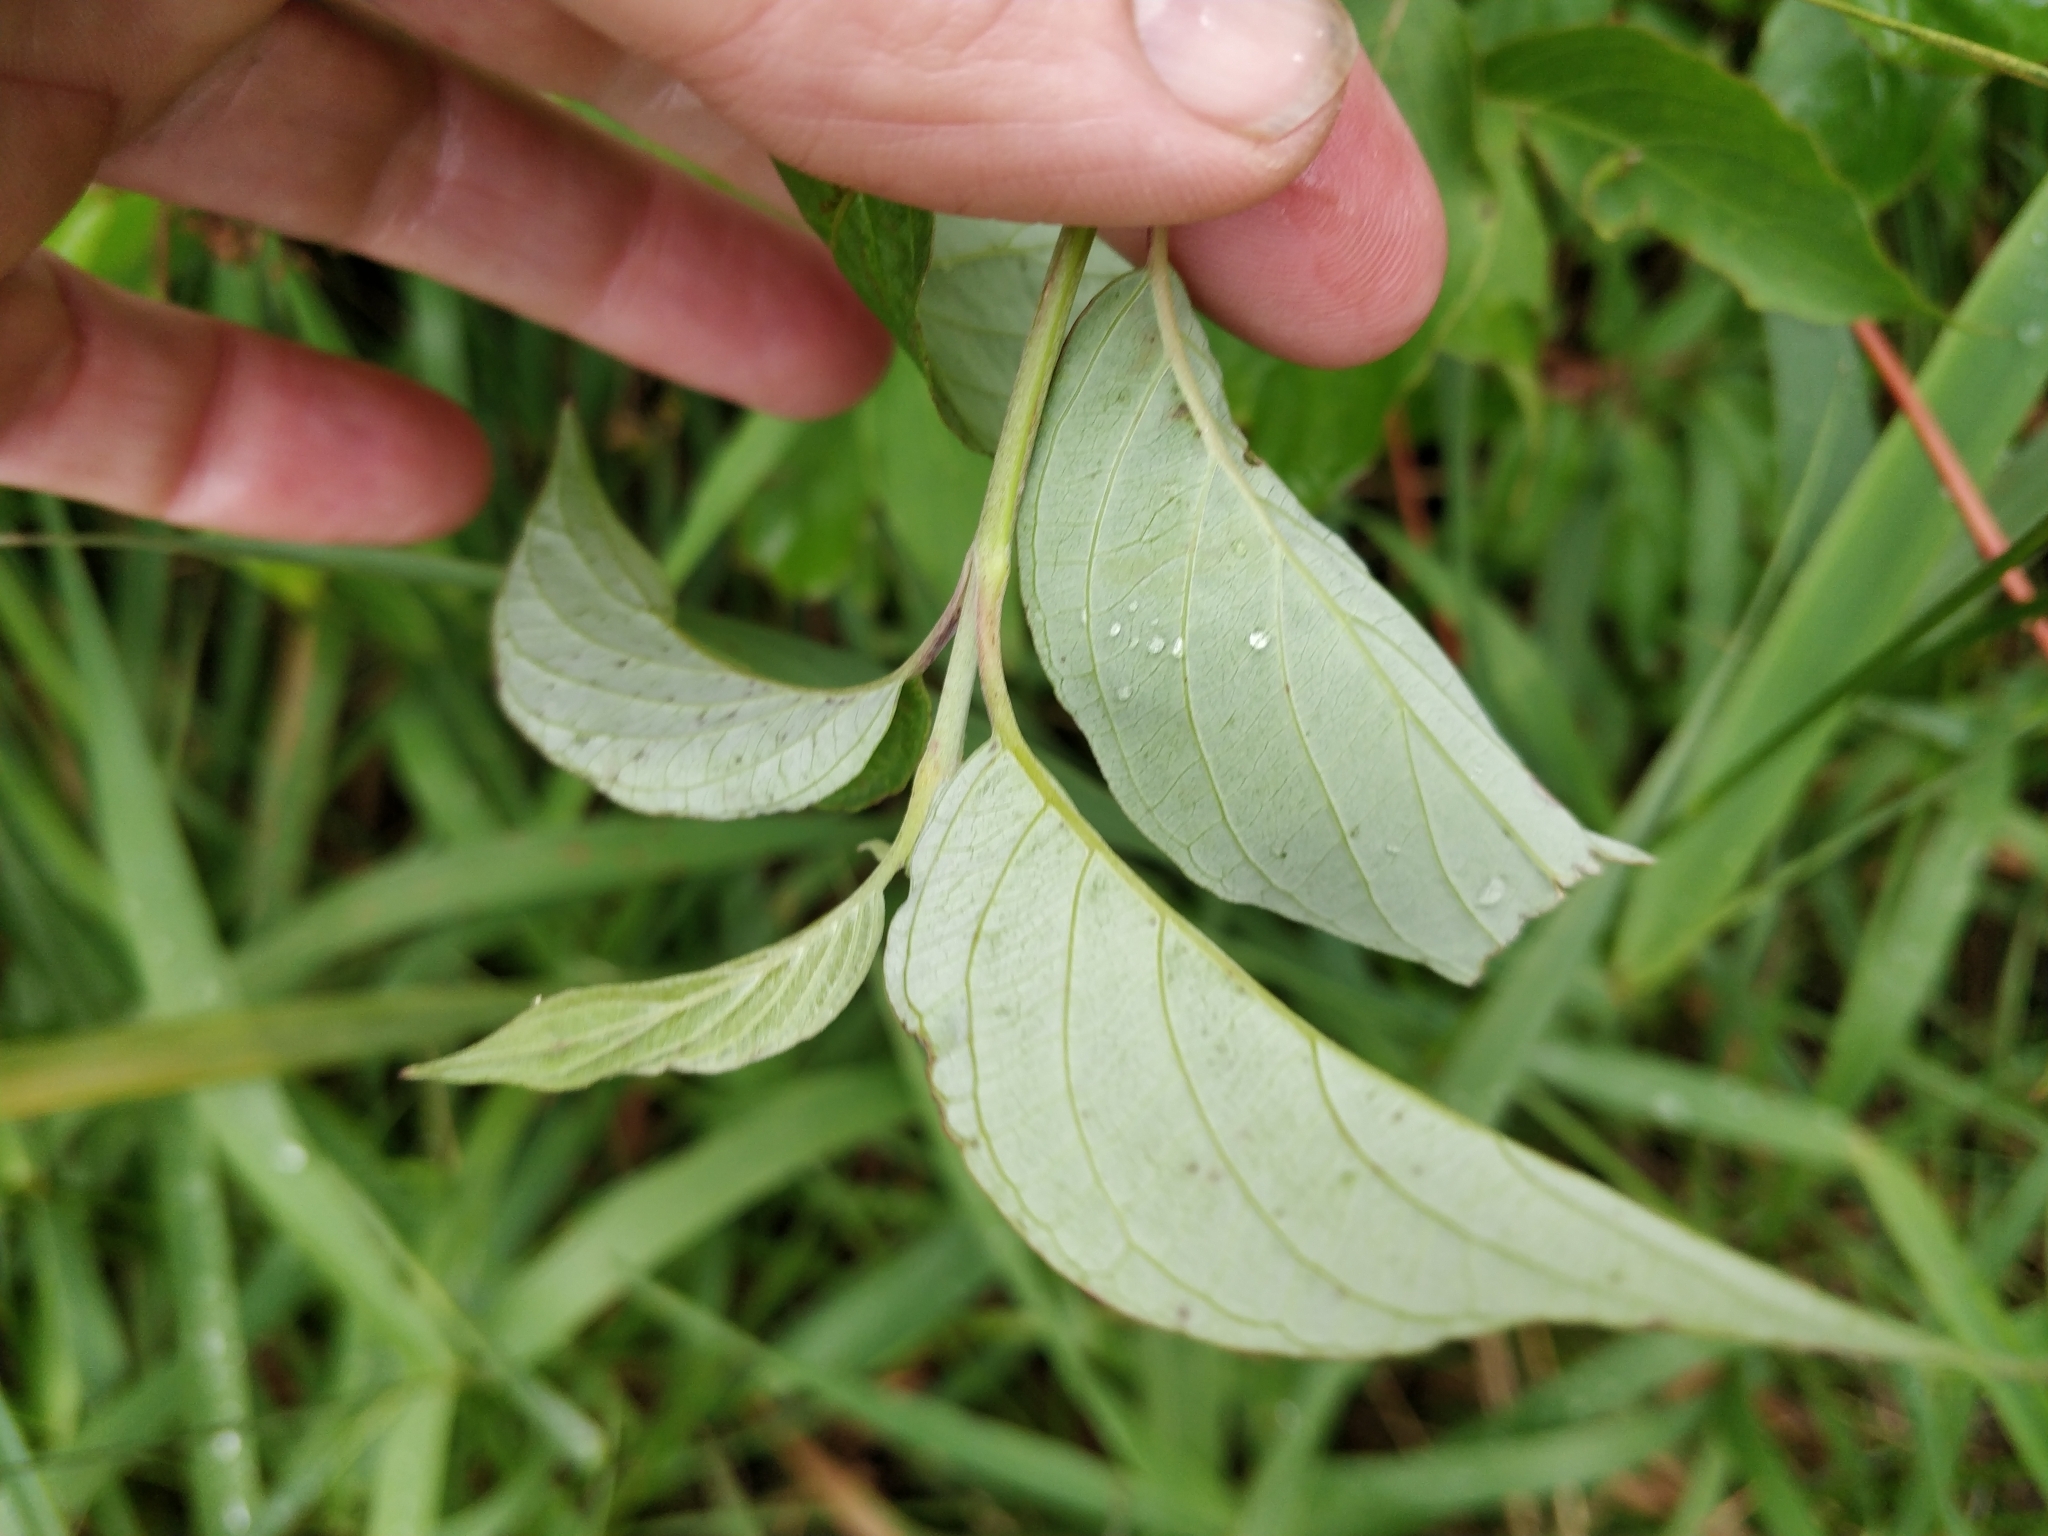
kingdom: Plantae
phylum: Tracheophyta
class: Magnoliopsida
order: Cornales
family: Cornaceae
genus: Cornus
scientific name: Cornus sericea
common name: Red-osier dogwood
